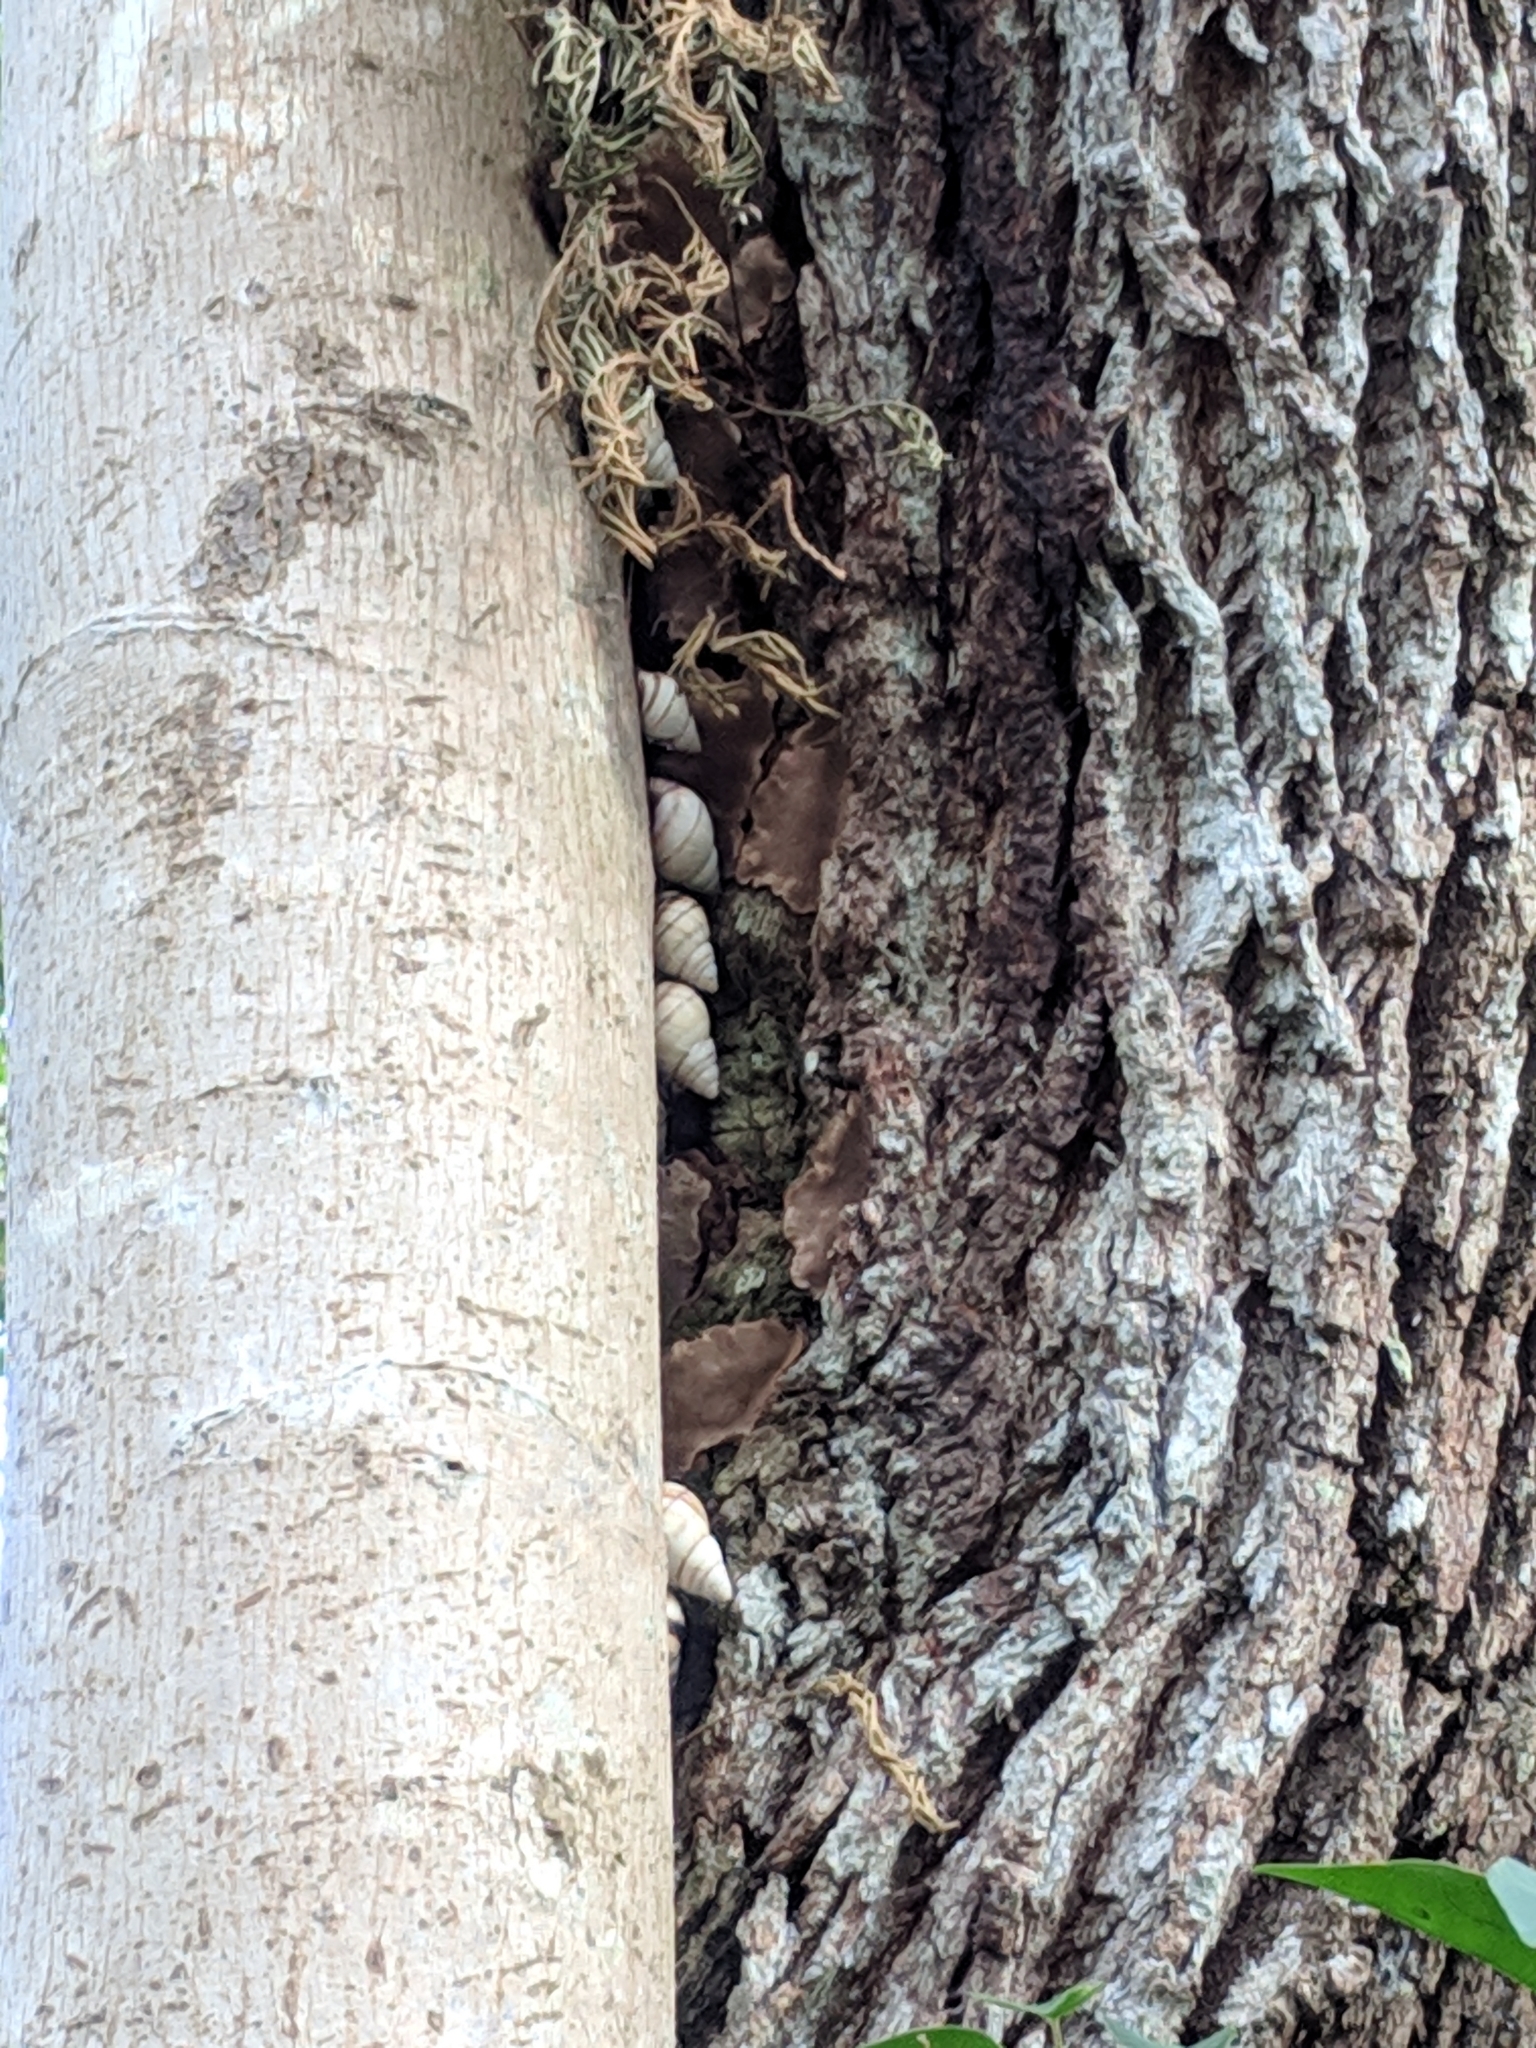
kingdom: Animalia
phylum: Mollusca
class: Gastropoda
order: Stylommatophora
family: Orthalicidae
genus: Orthalicus
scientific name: Orthalicus floridensis
